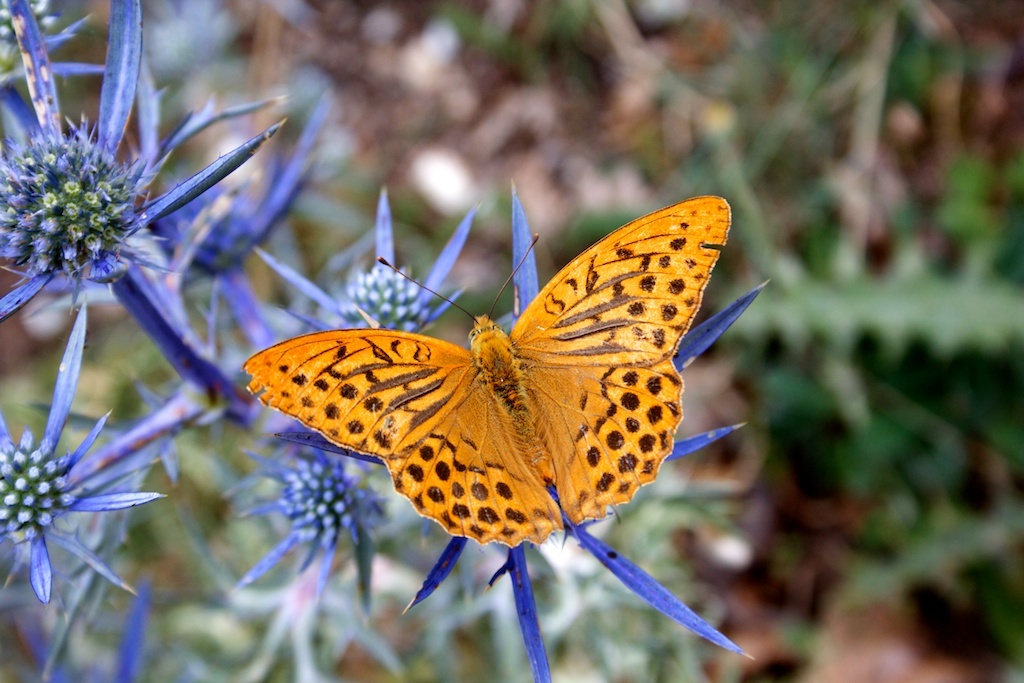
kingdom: Animalia
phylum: Arthropoda
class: Insecta
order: Lepidoptera
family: Nymphalidae
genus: Argynnis
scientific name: Argynnis paphia
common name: Silver-washed fritillary
